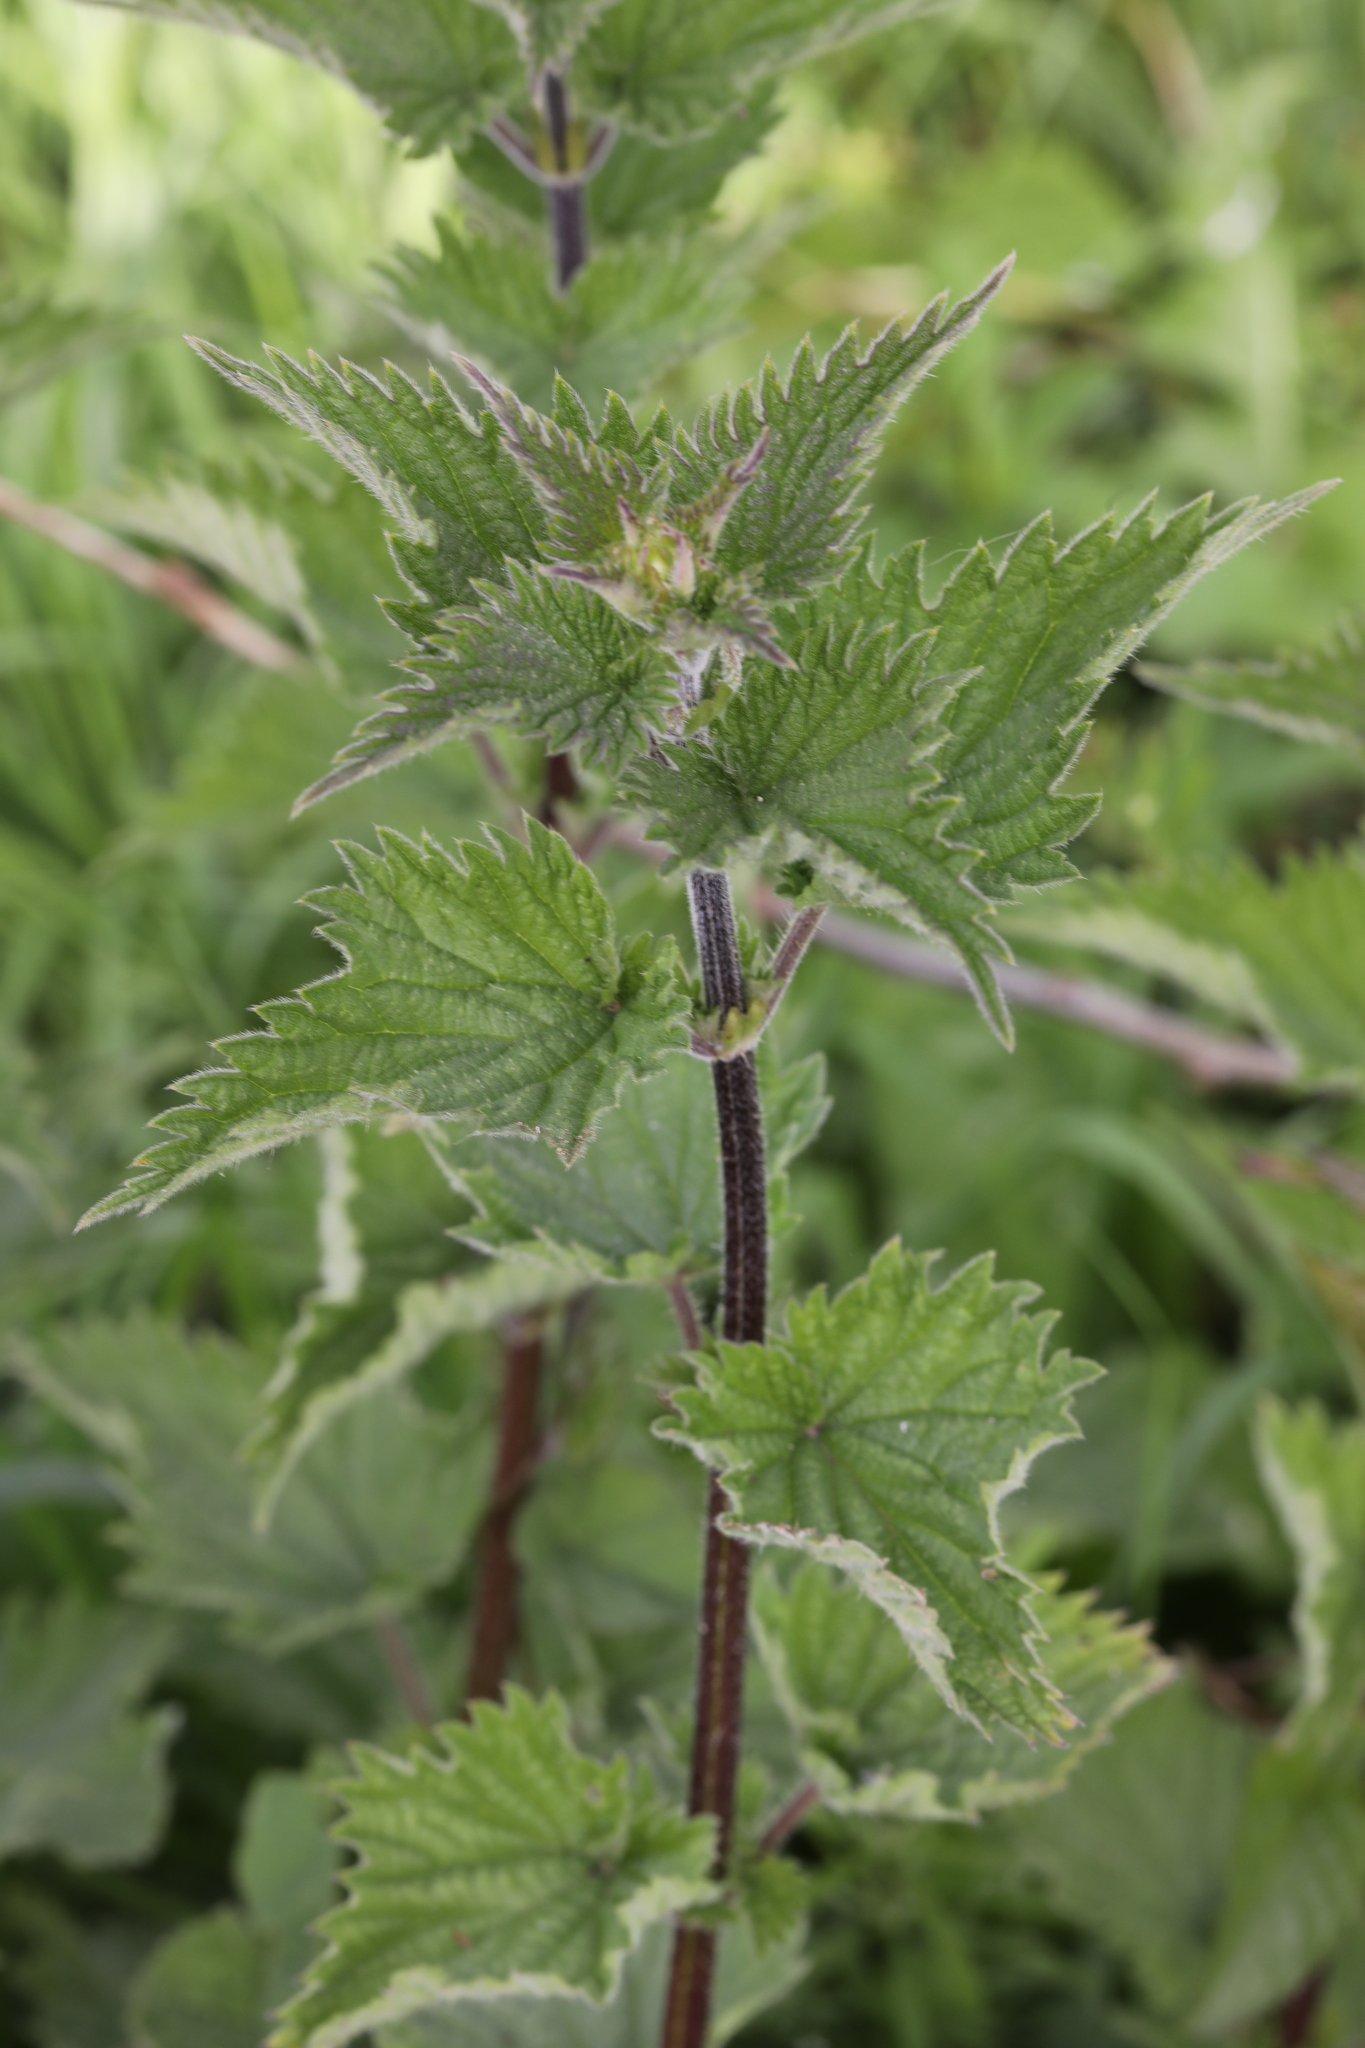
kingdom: Plantae
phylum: Tracheophyta
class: Magnoliopsida
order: Rosales
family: Urticaceae
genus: Urtica
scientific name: Urtica dioica
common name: Common nettle
